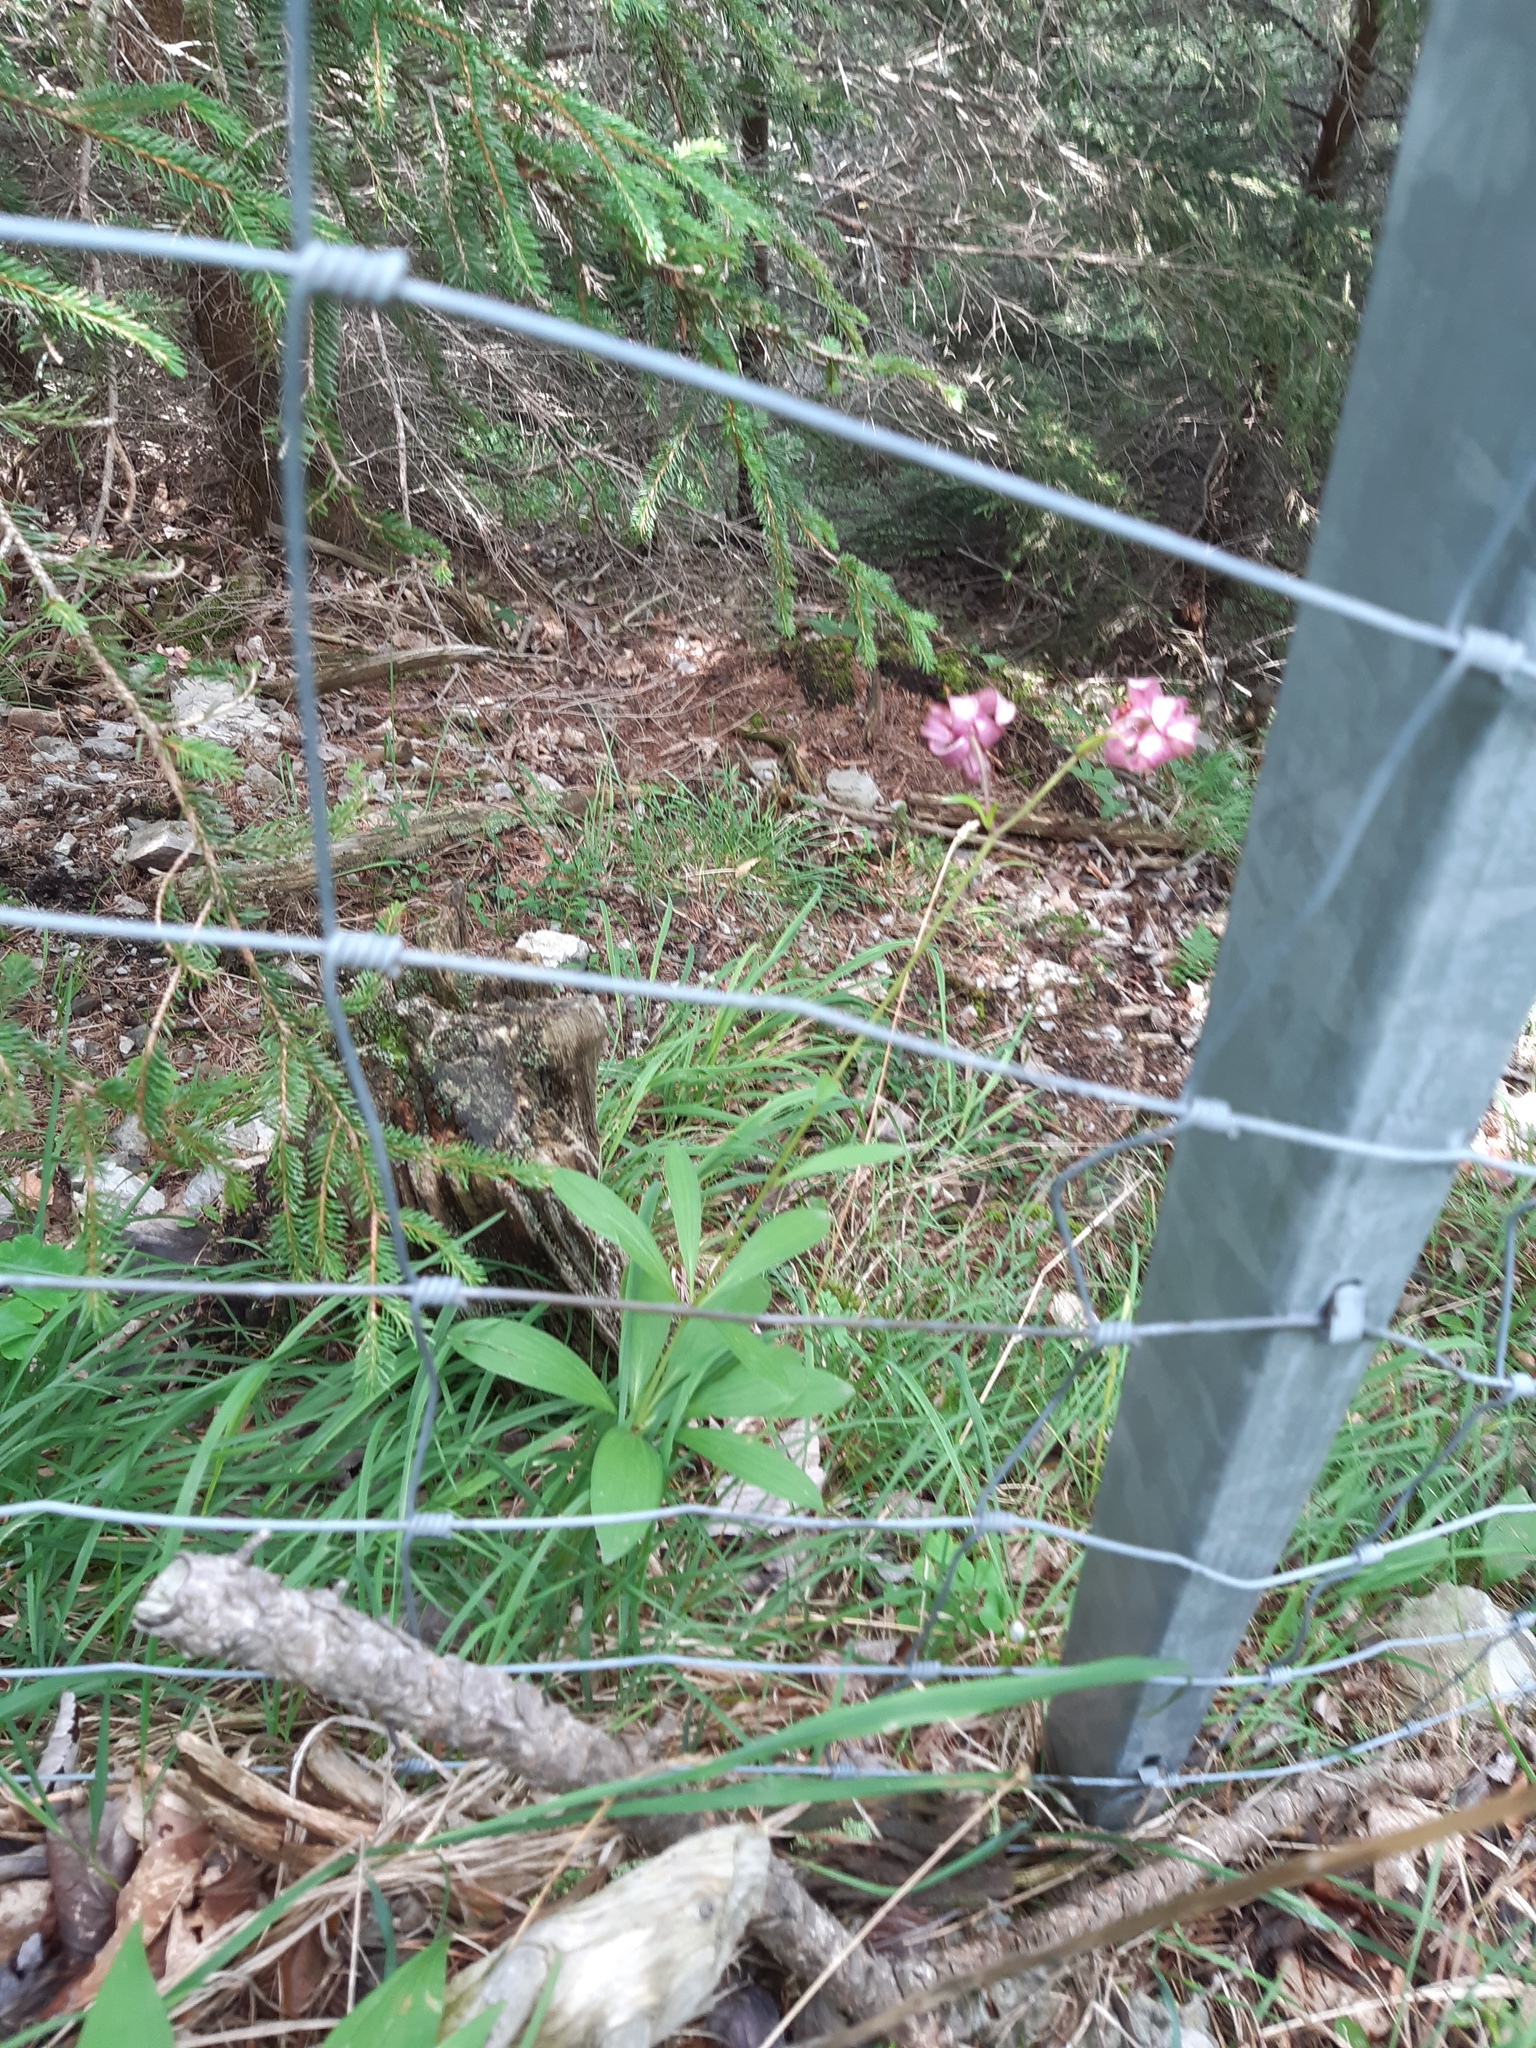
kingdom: Plantae
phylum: Tracheophyta
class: Liliopsida
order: Liliales
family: Liliaceae
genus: Lilium
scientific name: Lilium martagon
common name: Martagon lily
